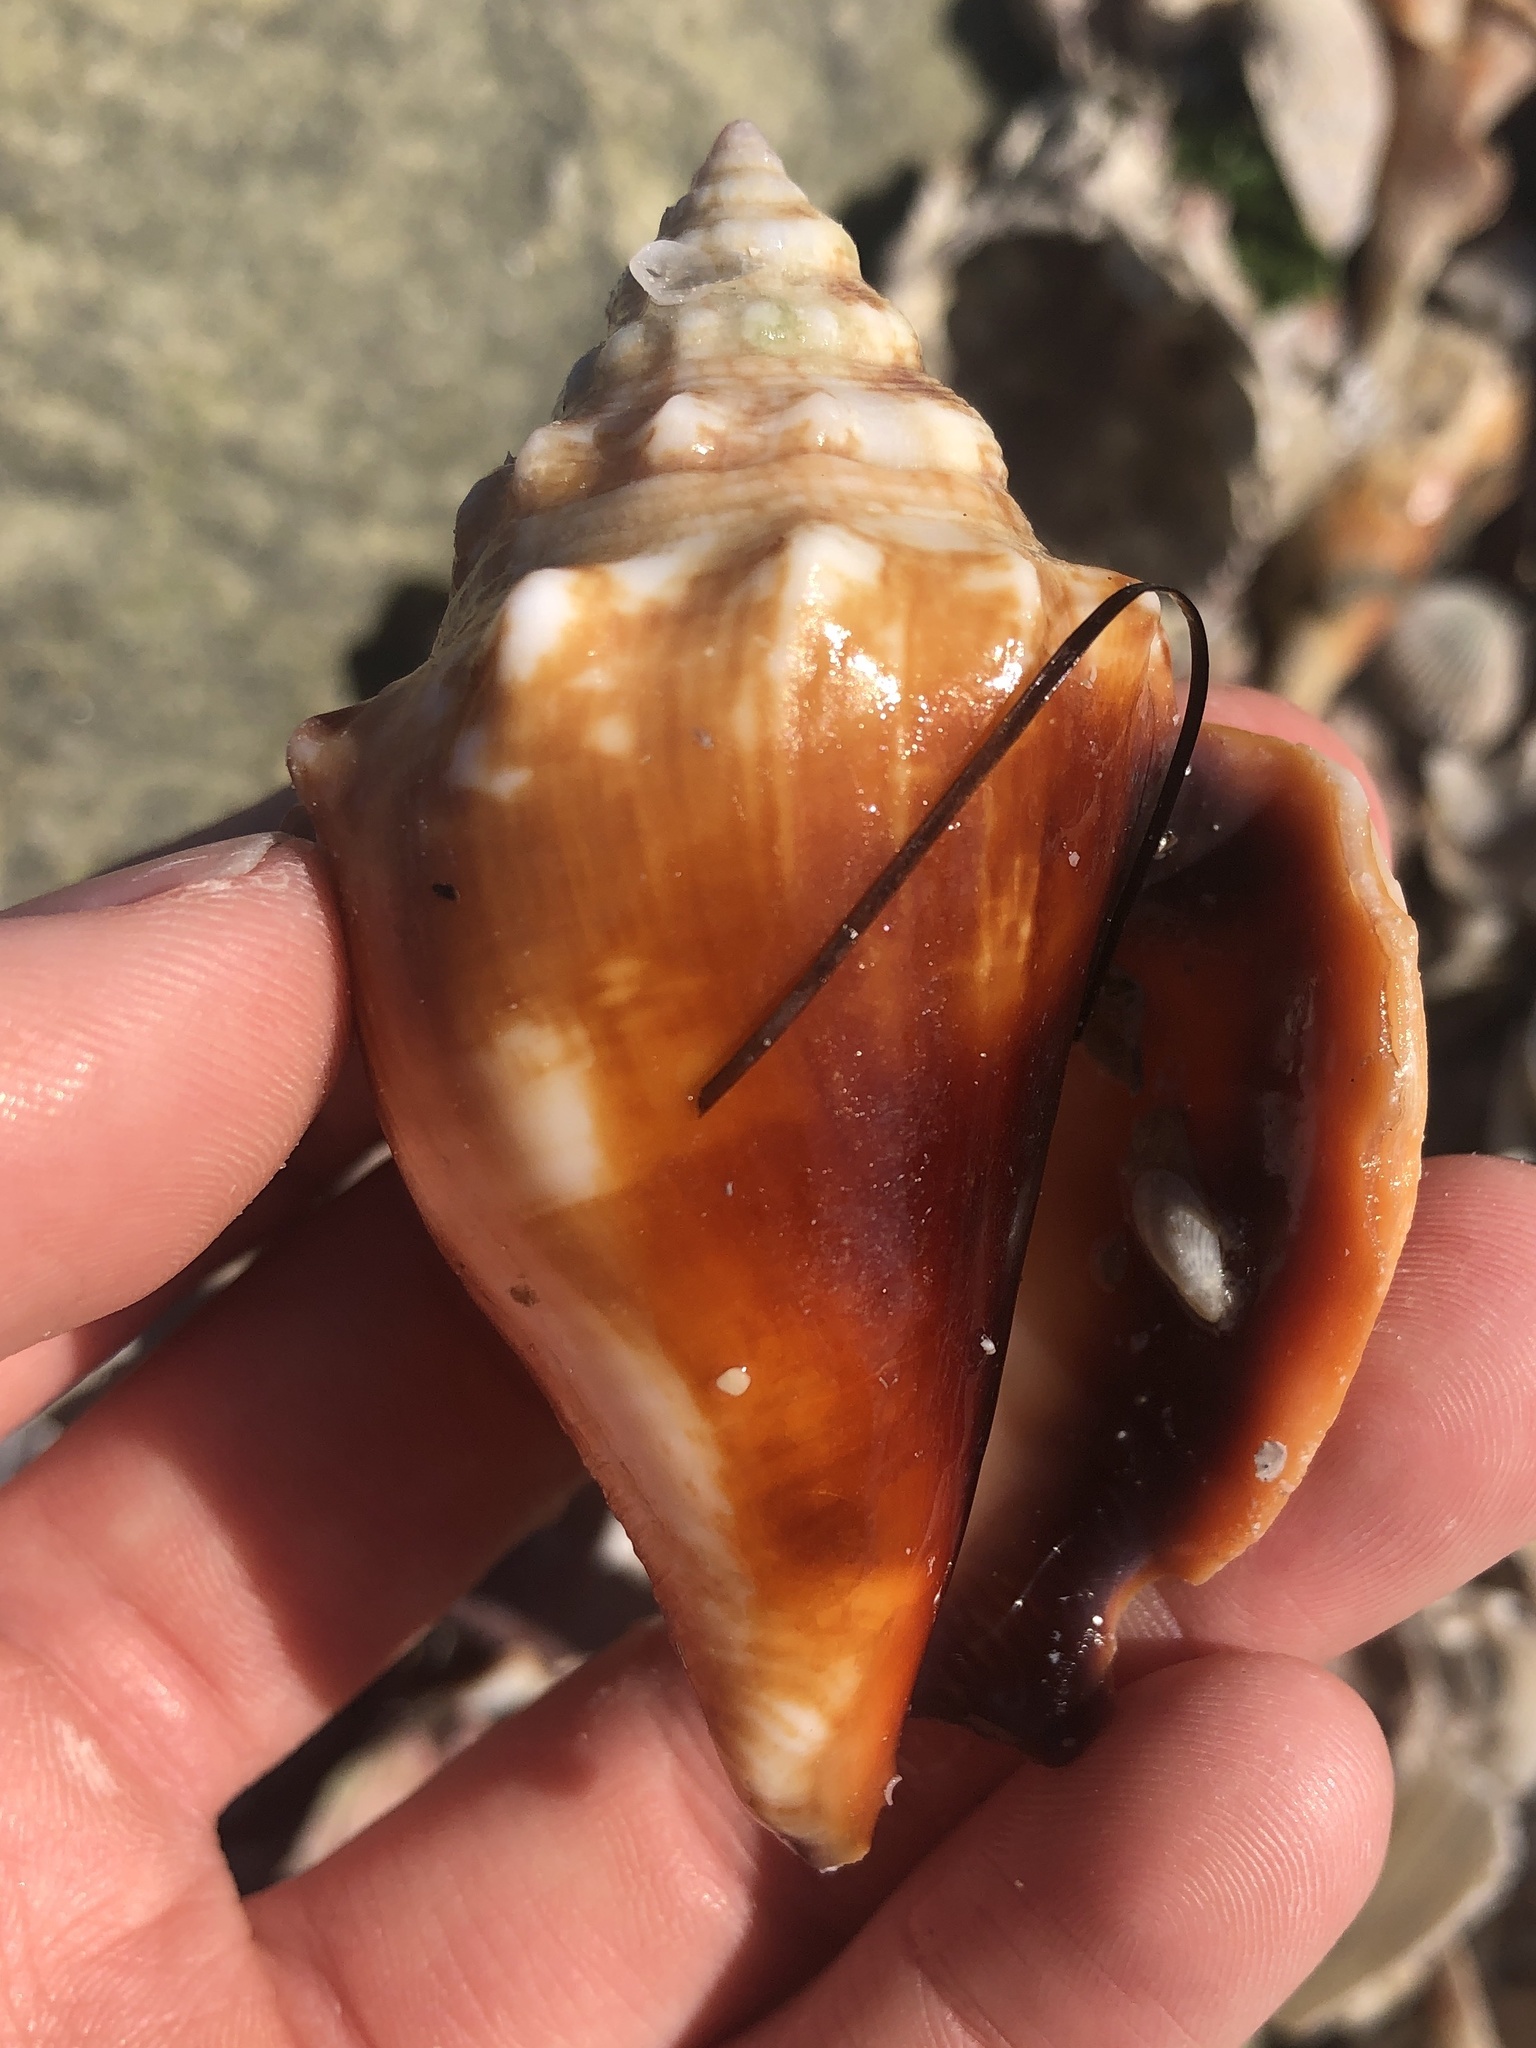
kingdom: Animalia
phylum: Mollusca
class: Gastropoda
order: Littorinimorpha
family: Strombidae
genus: Strombus
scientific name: Strombus alatus
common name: Florida fighting conch
